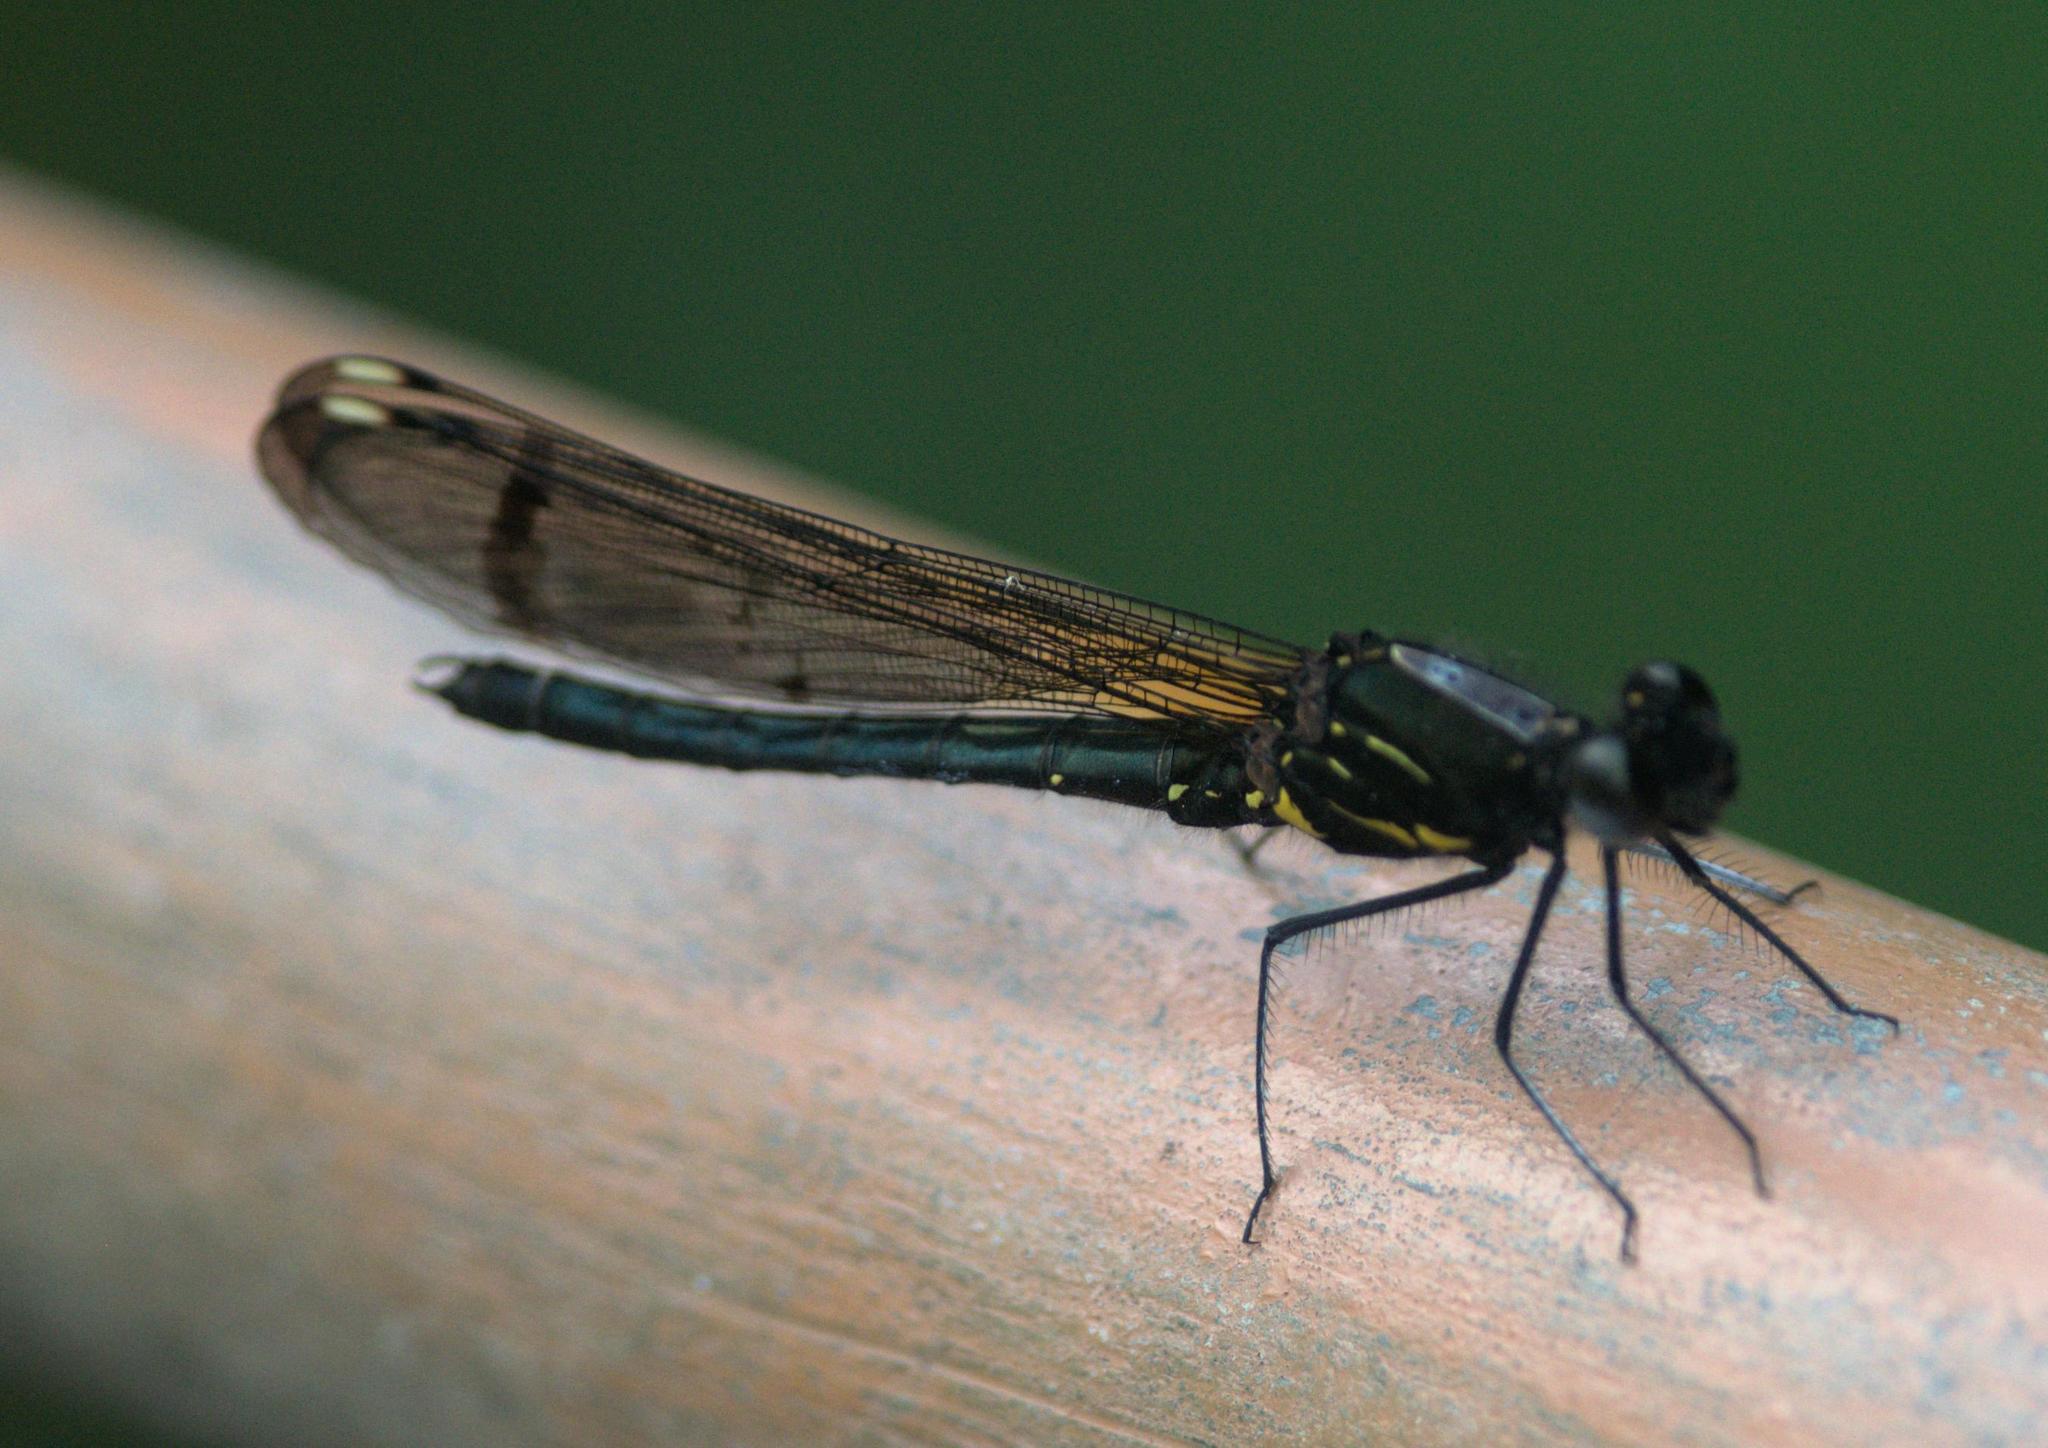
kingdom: Animalia
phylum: Arthropoda
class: Insecta
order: Odonata
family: Chlorocyphidae
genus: Aristocypha
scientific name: Aristocypha trifasciata
